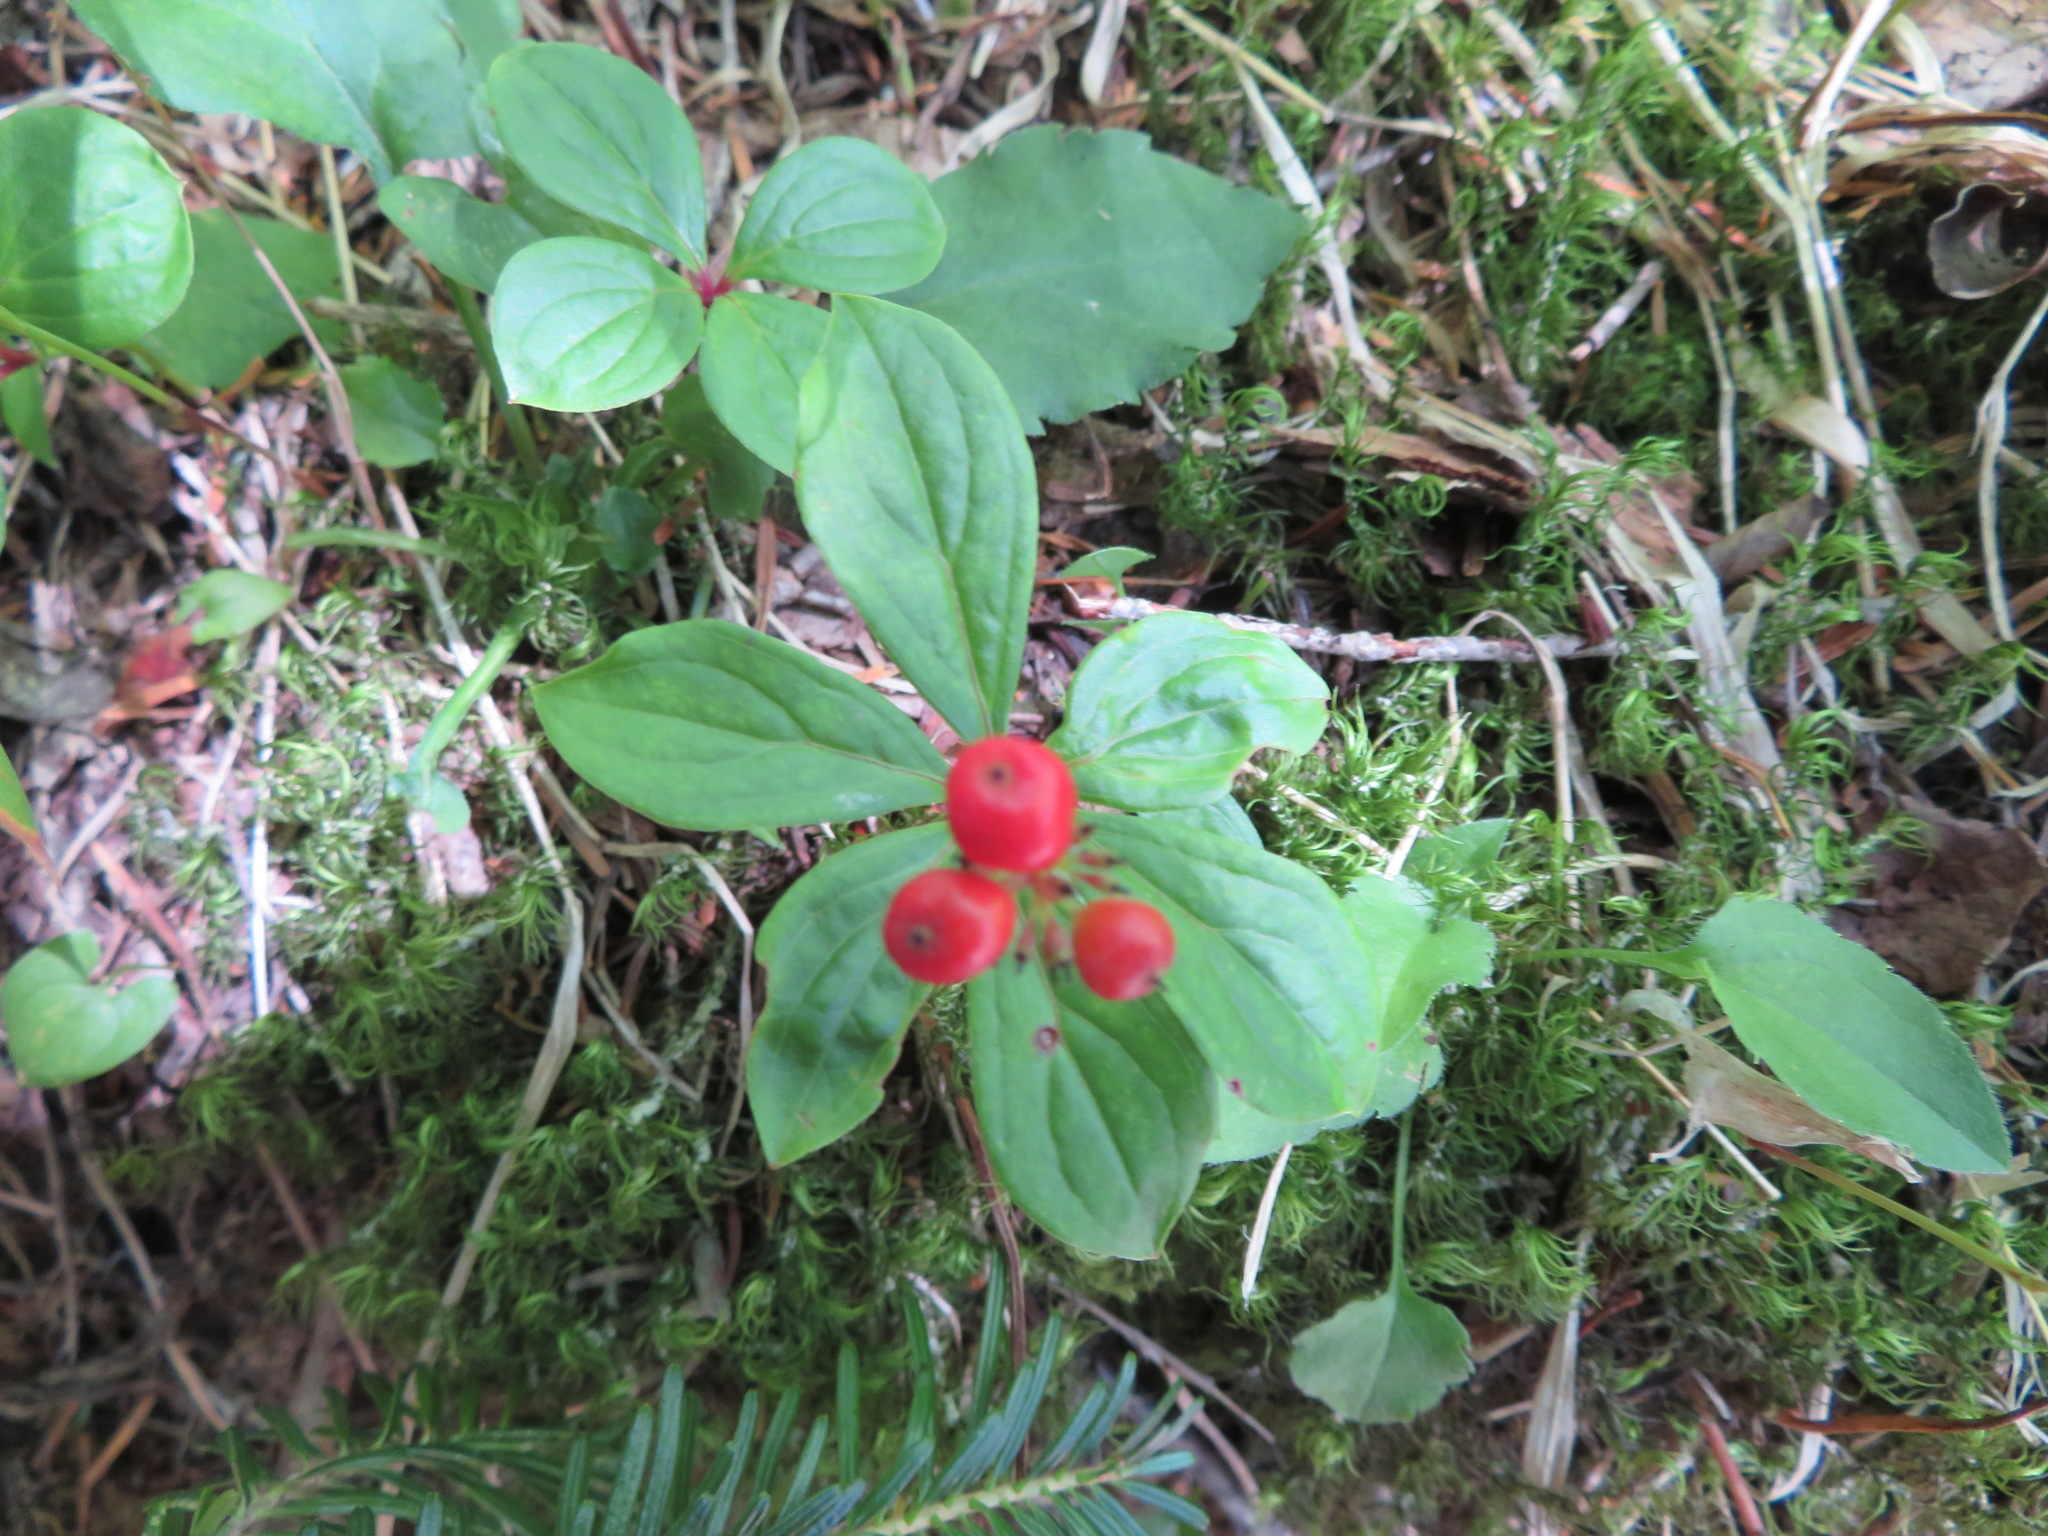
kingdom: Plantae
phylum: Tracheophyta
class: Magnoliopsida
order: Cornales
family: Cornaceae
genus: Cornus
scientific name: Cornus canadensis
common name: Creeping dogwood
